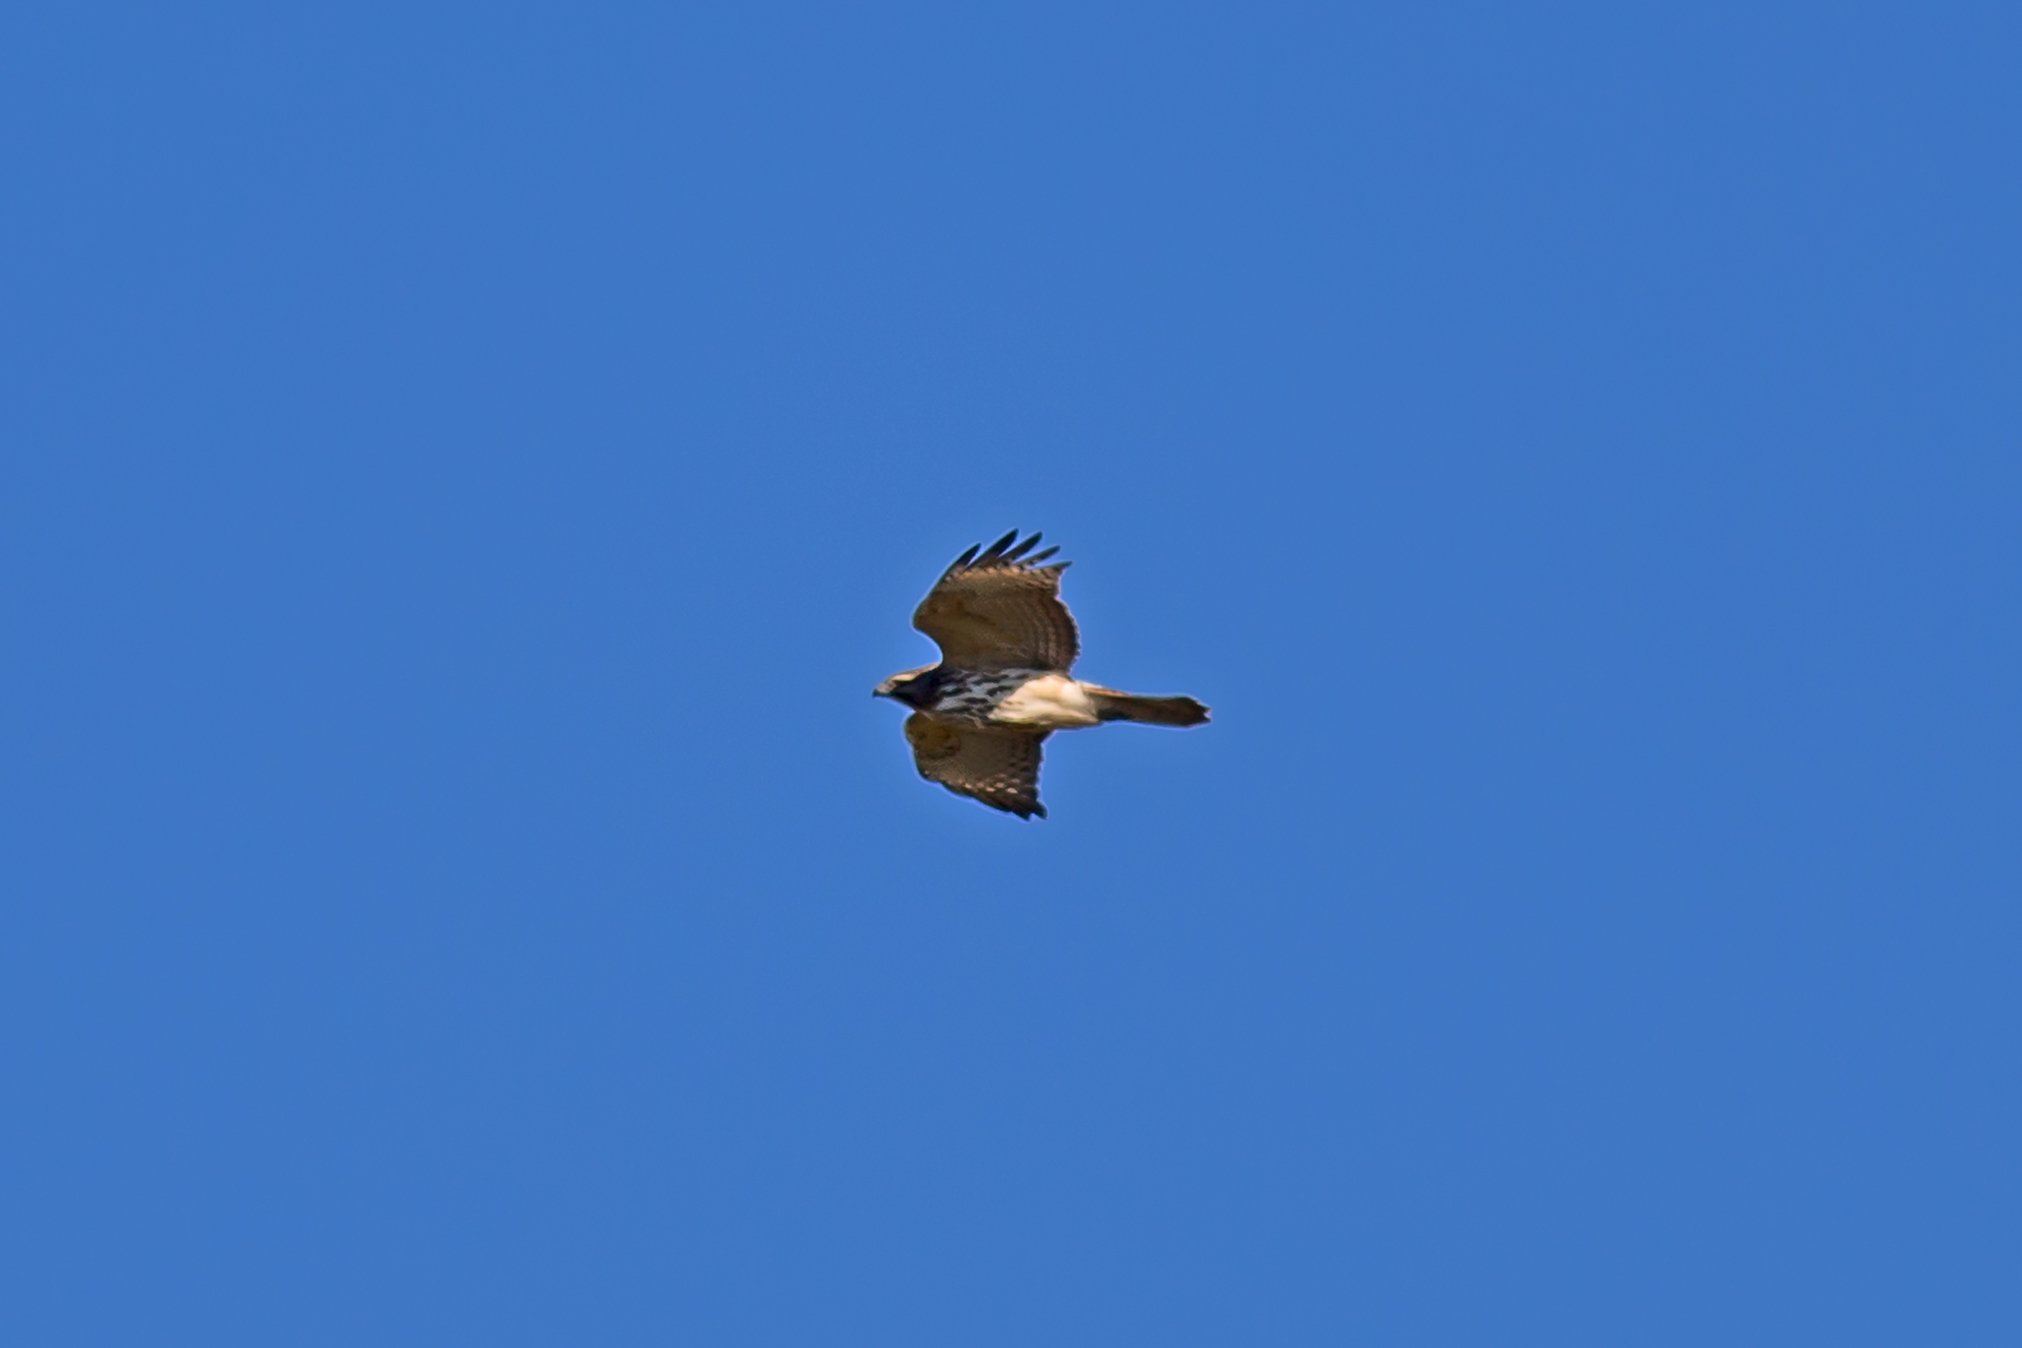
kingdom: Animalia
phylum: Chordata
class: Aves
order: Accipitriformes
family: Accipitridae
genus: Buteo
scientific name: Buteo lineatus
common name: Red-shouldered hawk
